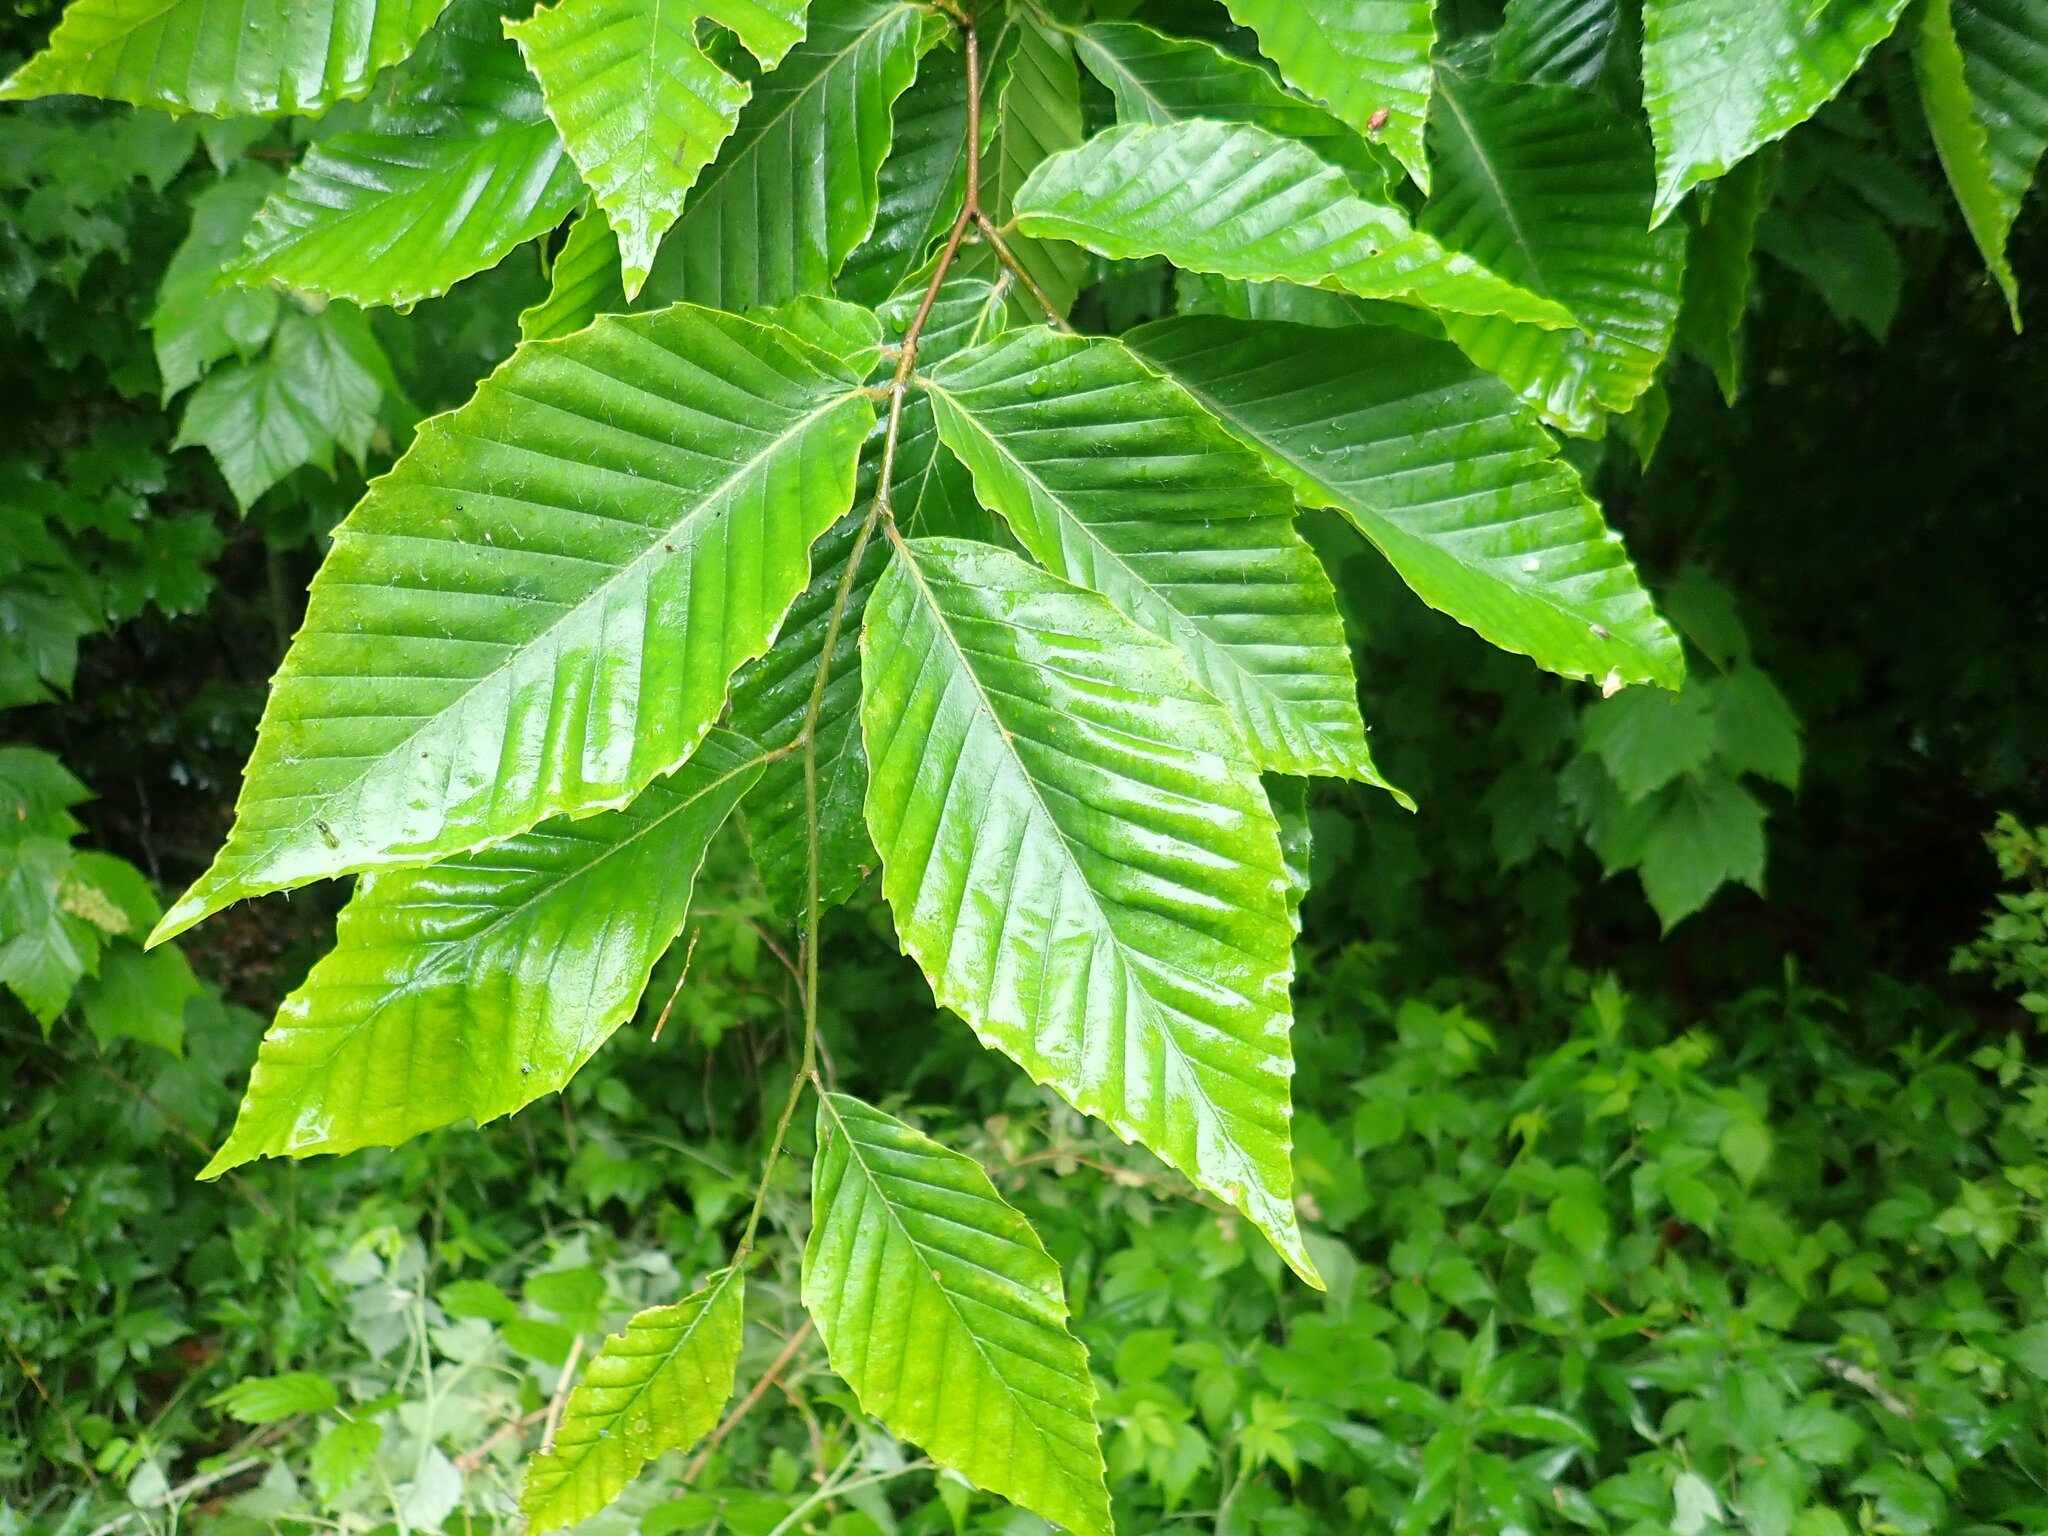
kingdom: Plantae
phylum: Tracheophyta
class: Magnoliopsida
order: Fagales
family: Fagaceae
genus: Fagus
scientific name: Fagus grandifolia
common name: American beech
